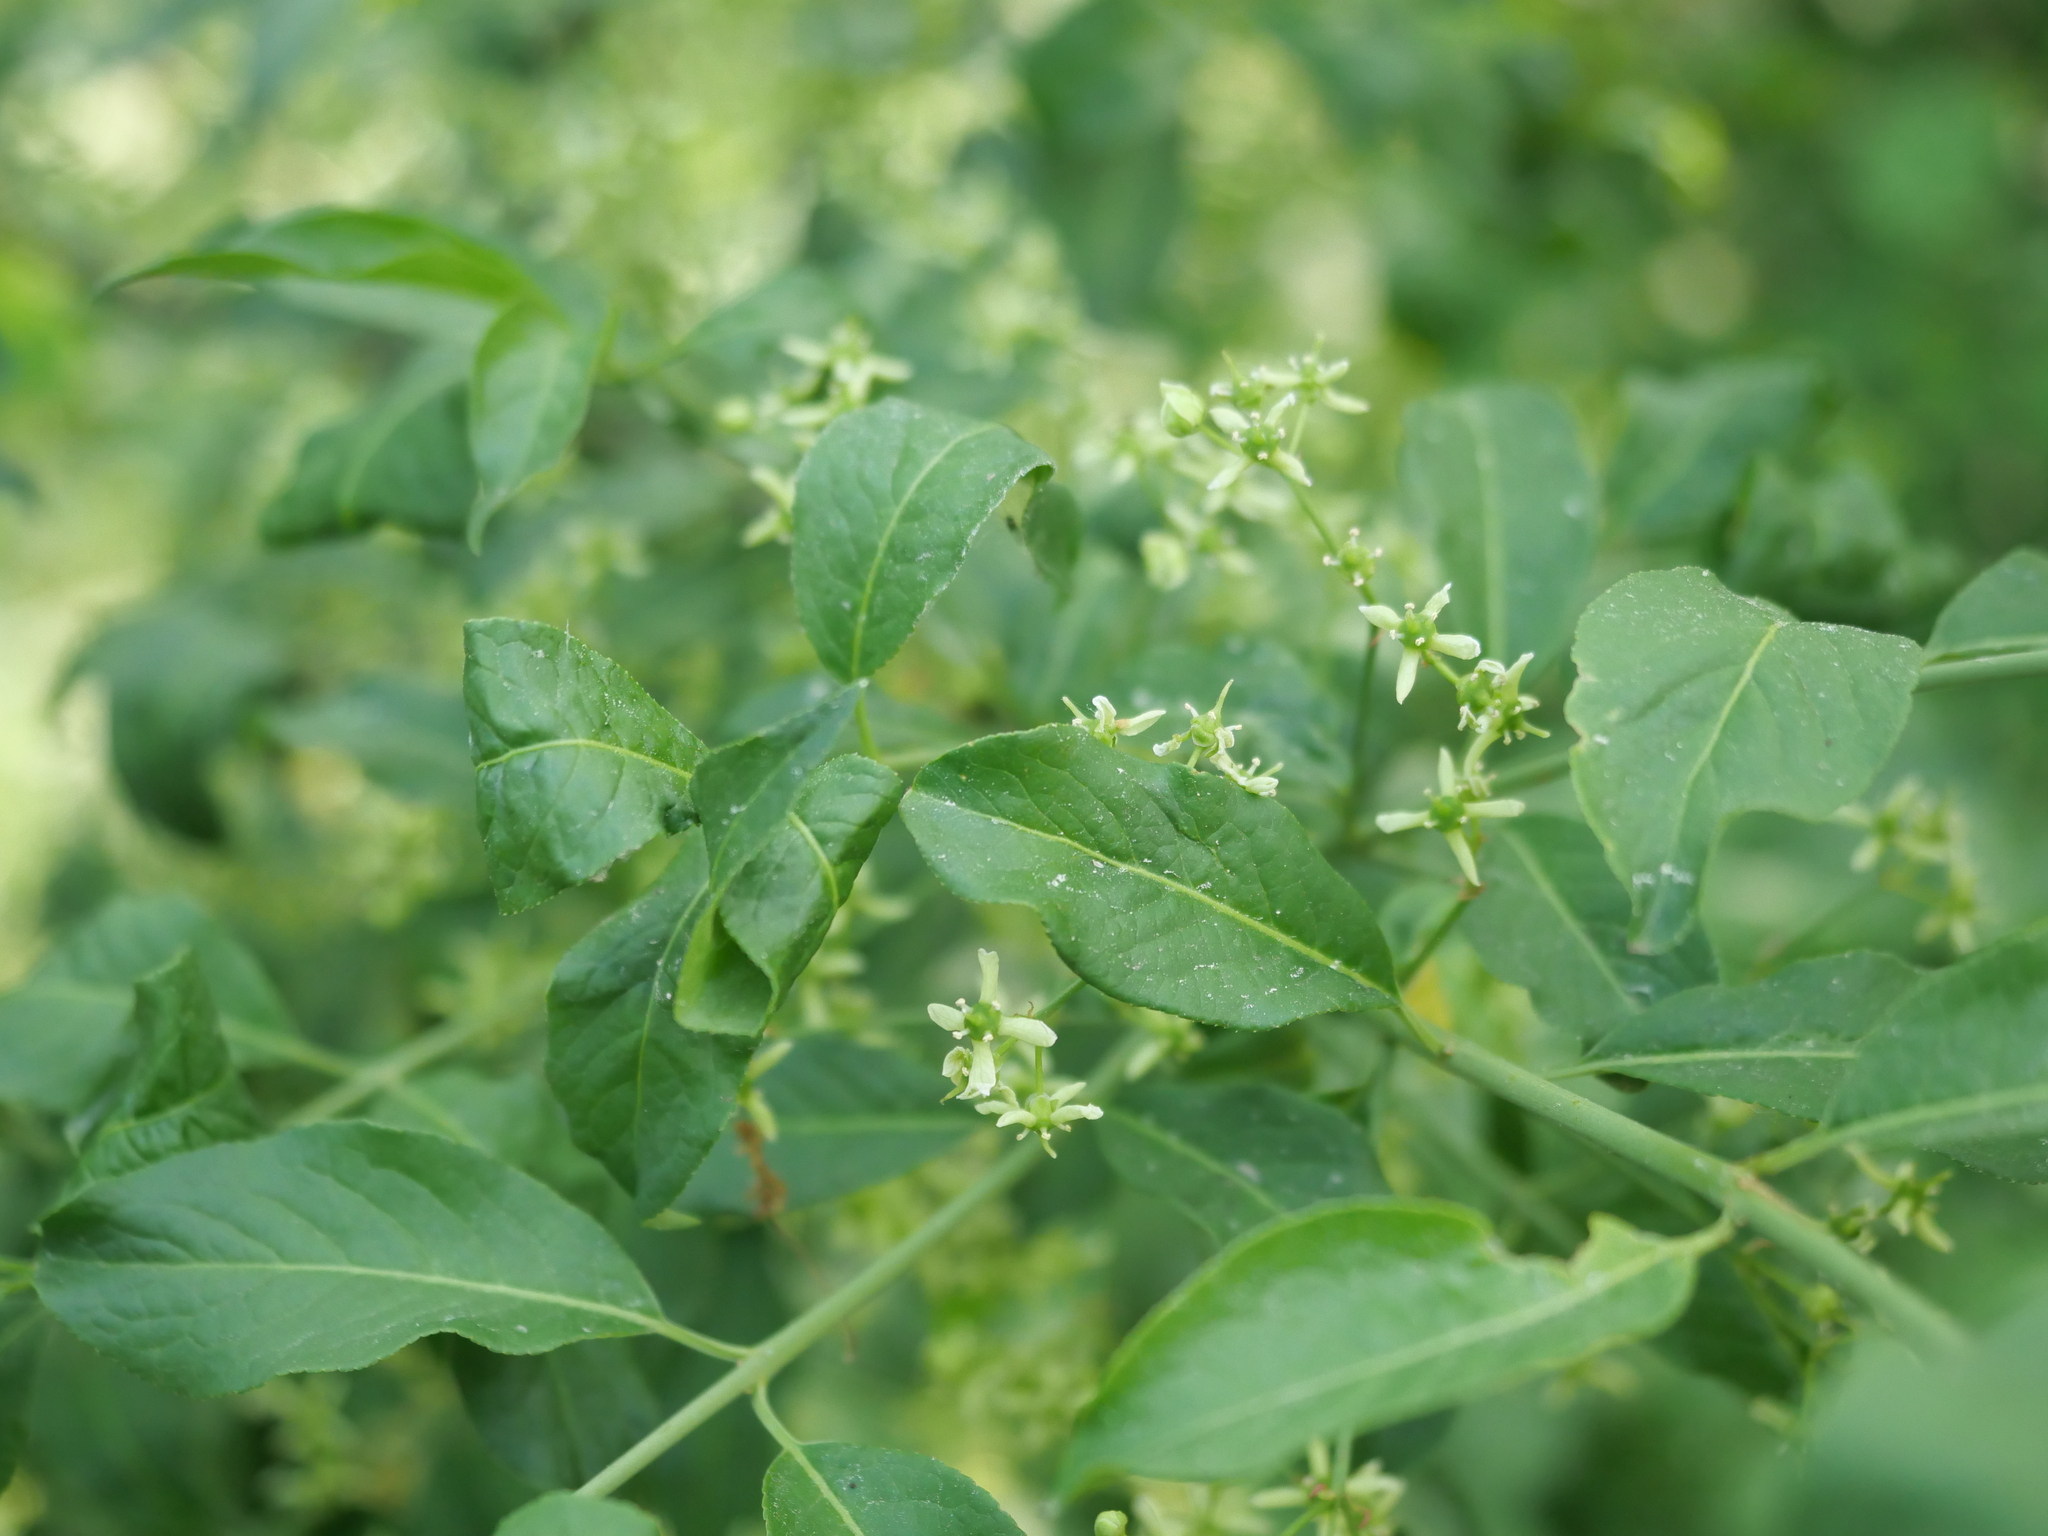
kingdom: Plantae
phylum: Tracheophyta
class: Magnoliopsida
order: Celastrales
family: Celastraceae
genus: Euonymus
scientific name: Euonymus europaeus
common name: Spindle
